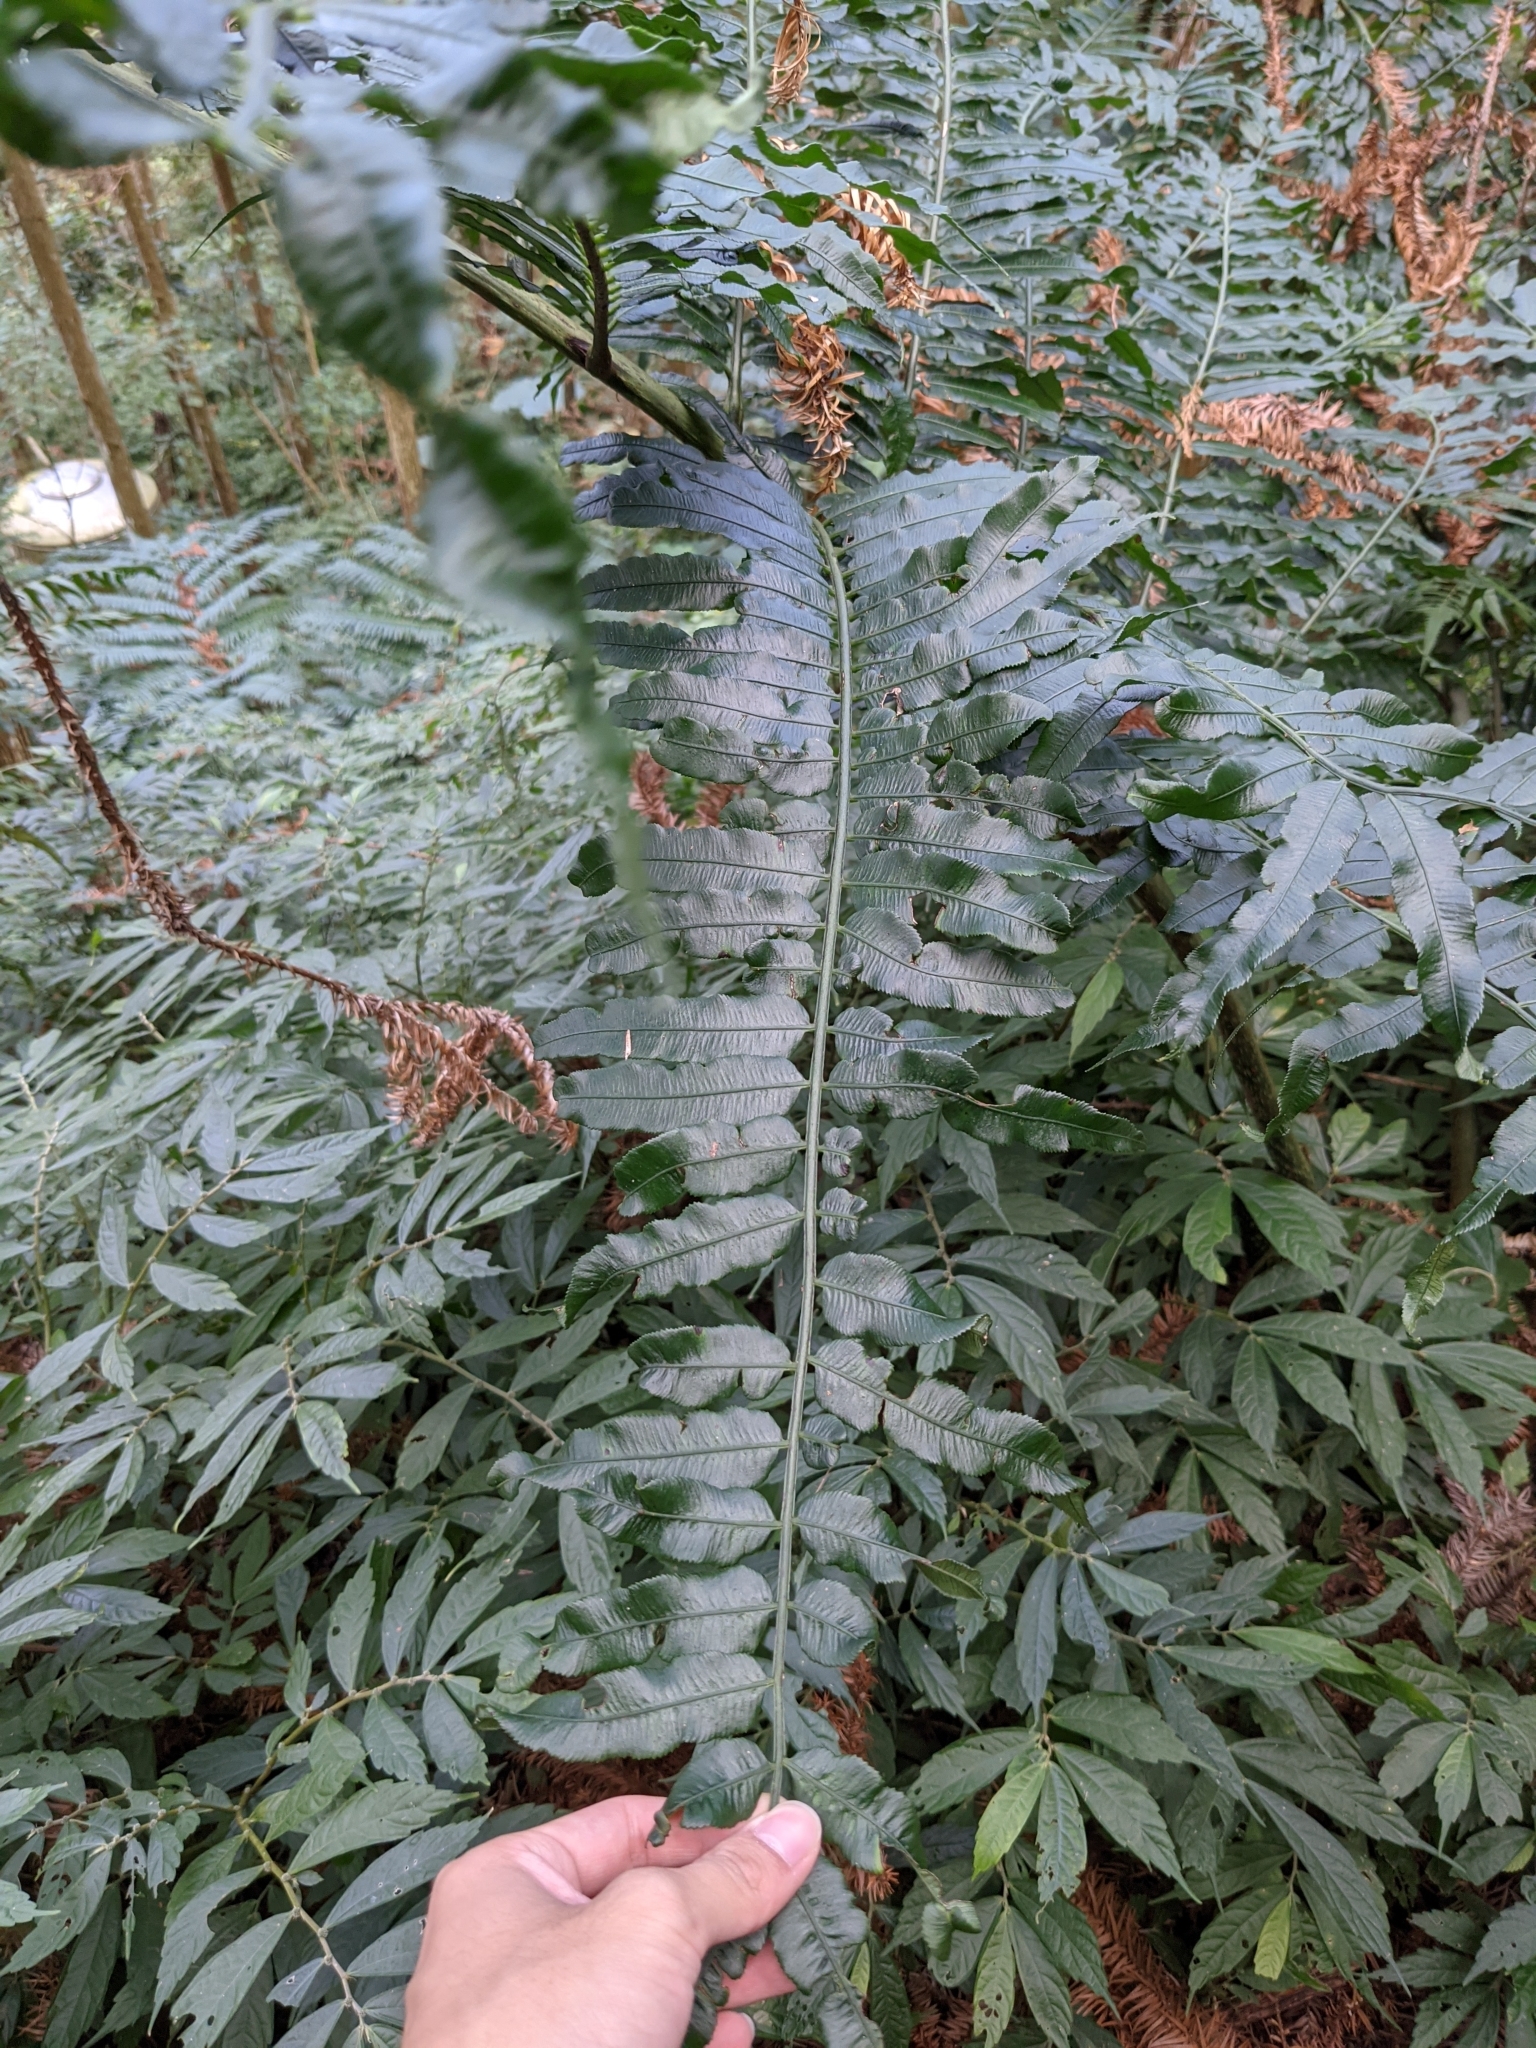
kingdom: Plantae
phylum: Tracheophyta
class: Polypodiopsida
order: Marattiales
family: Marattiaceae
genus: Angiopteris
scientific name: Angiopteris lygodiifolia
